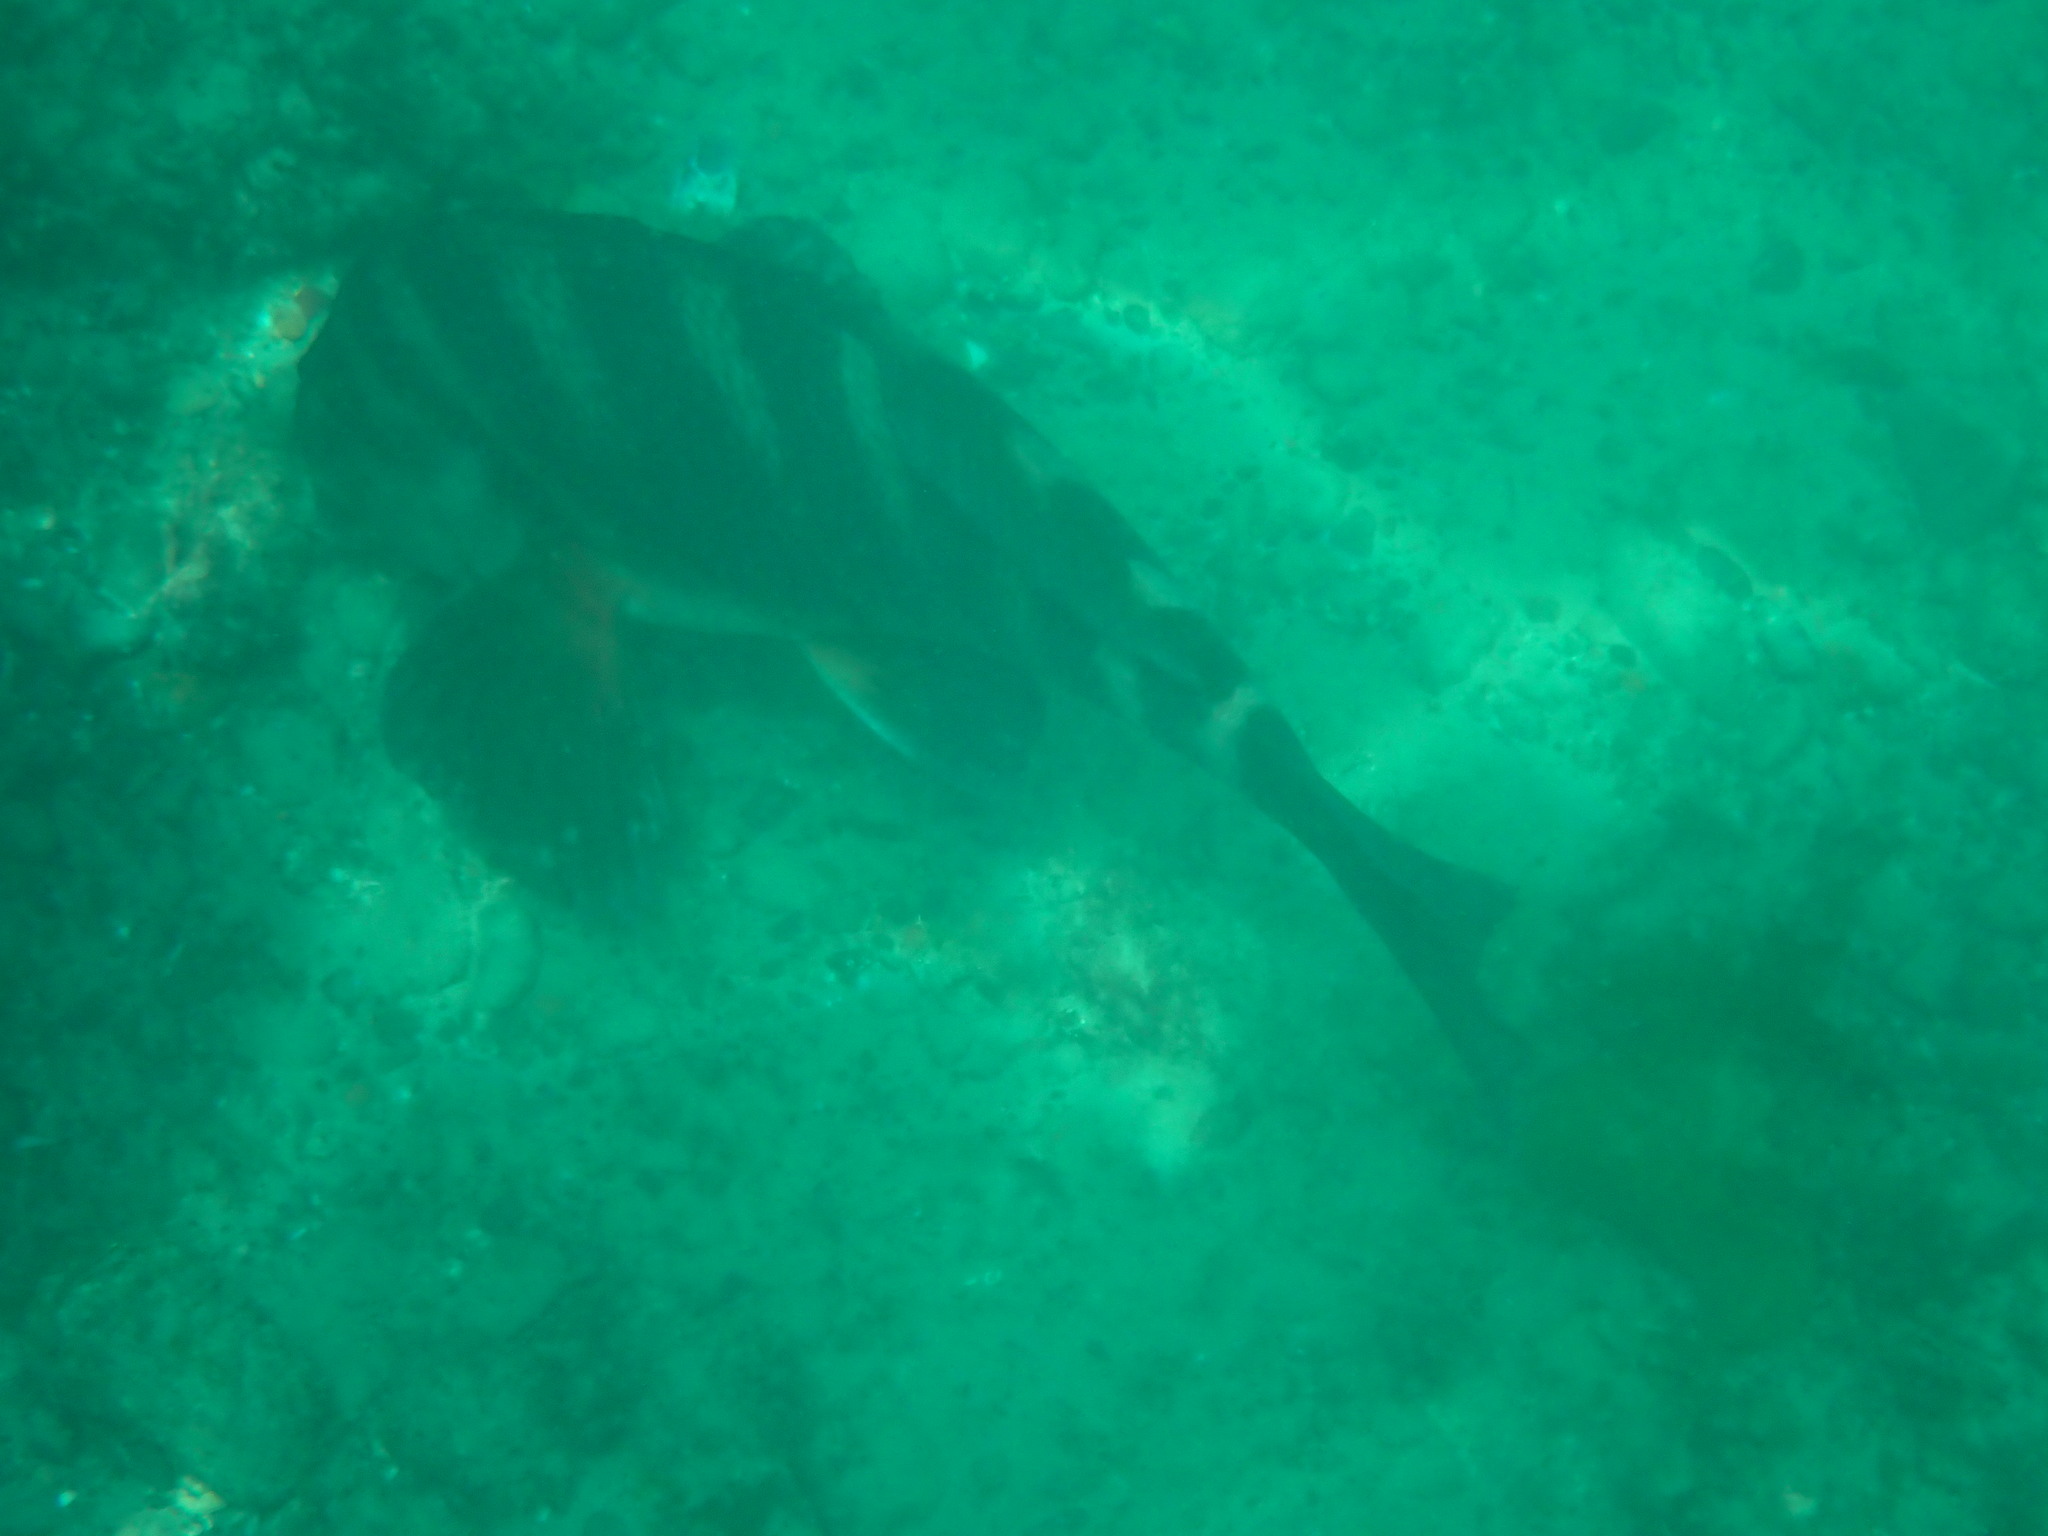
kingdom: Animalia
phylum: Chordata
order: Perciformes
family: Cheilodactylidae
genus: Cheilodactylus
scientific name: Cheilodactylus spectabilis
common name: Red moki
